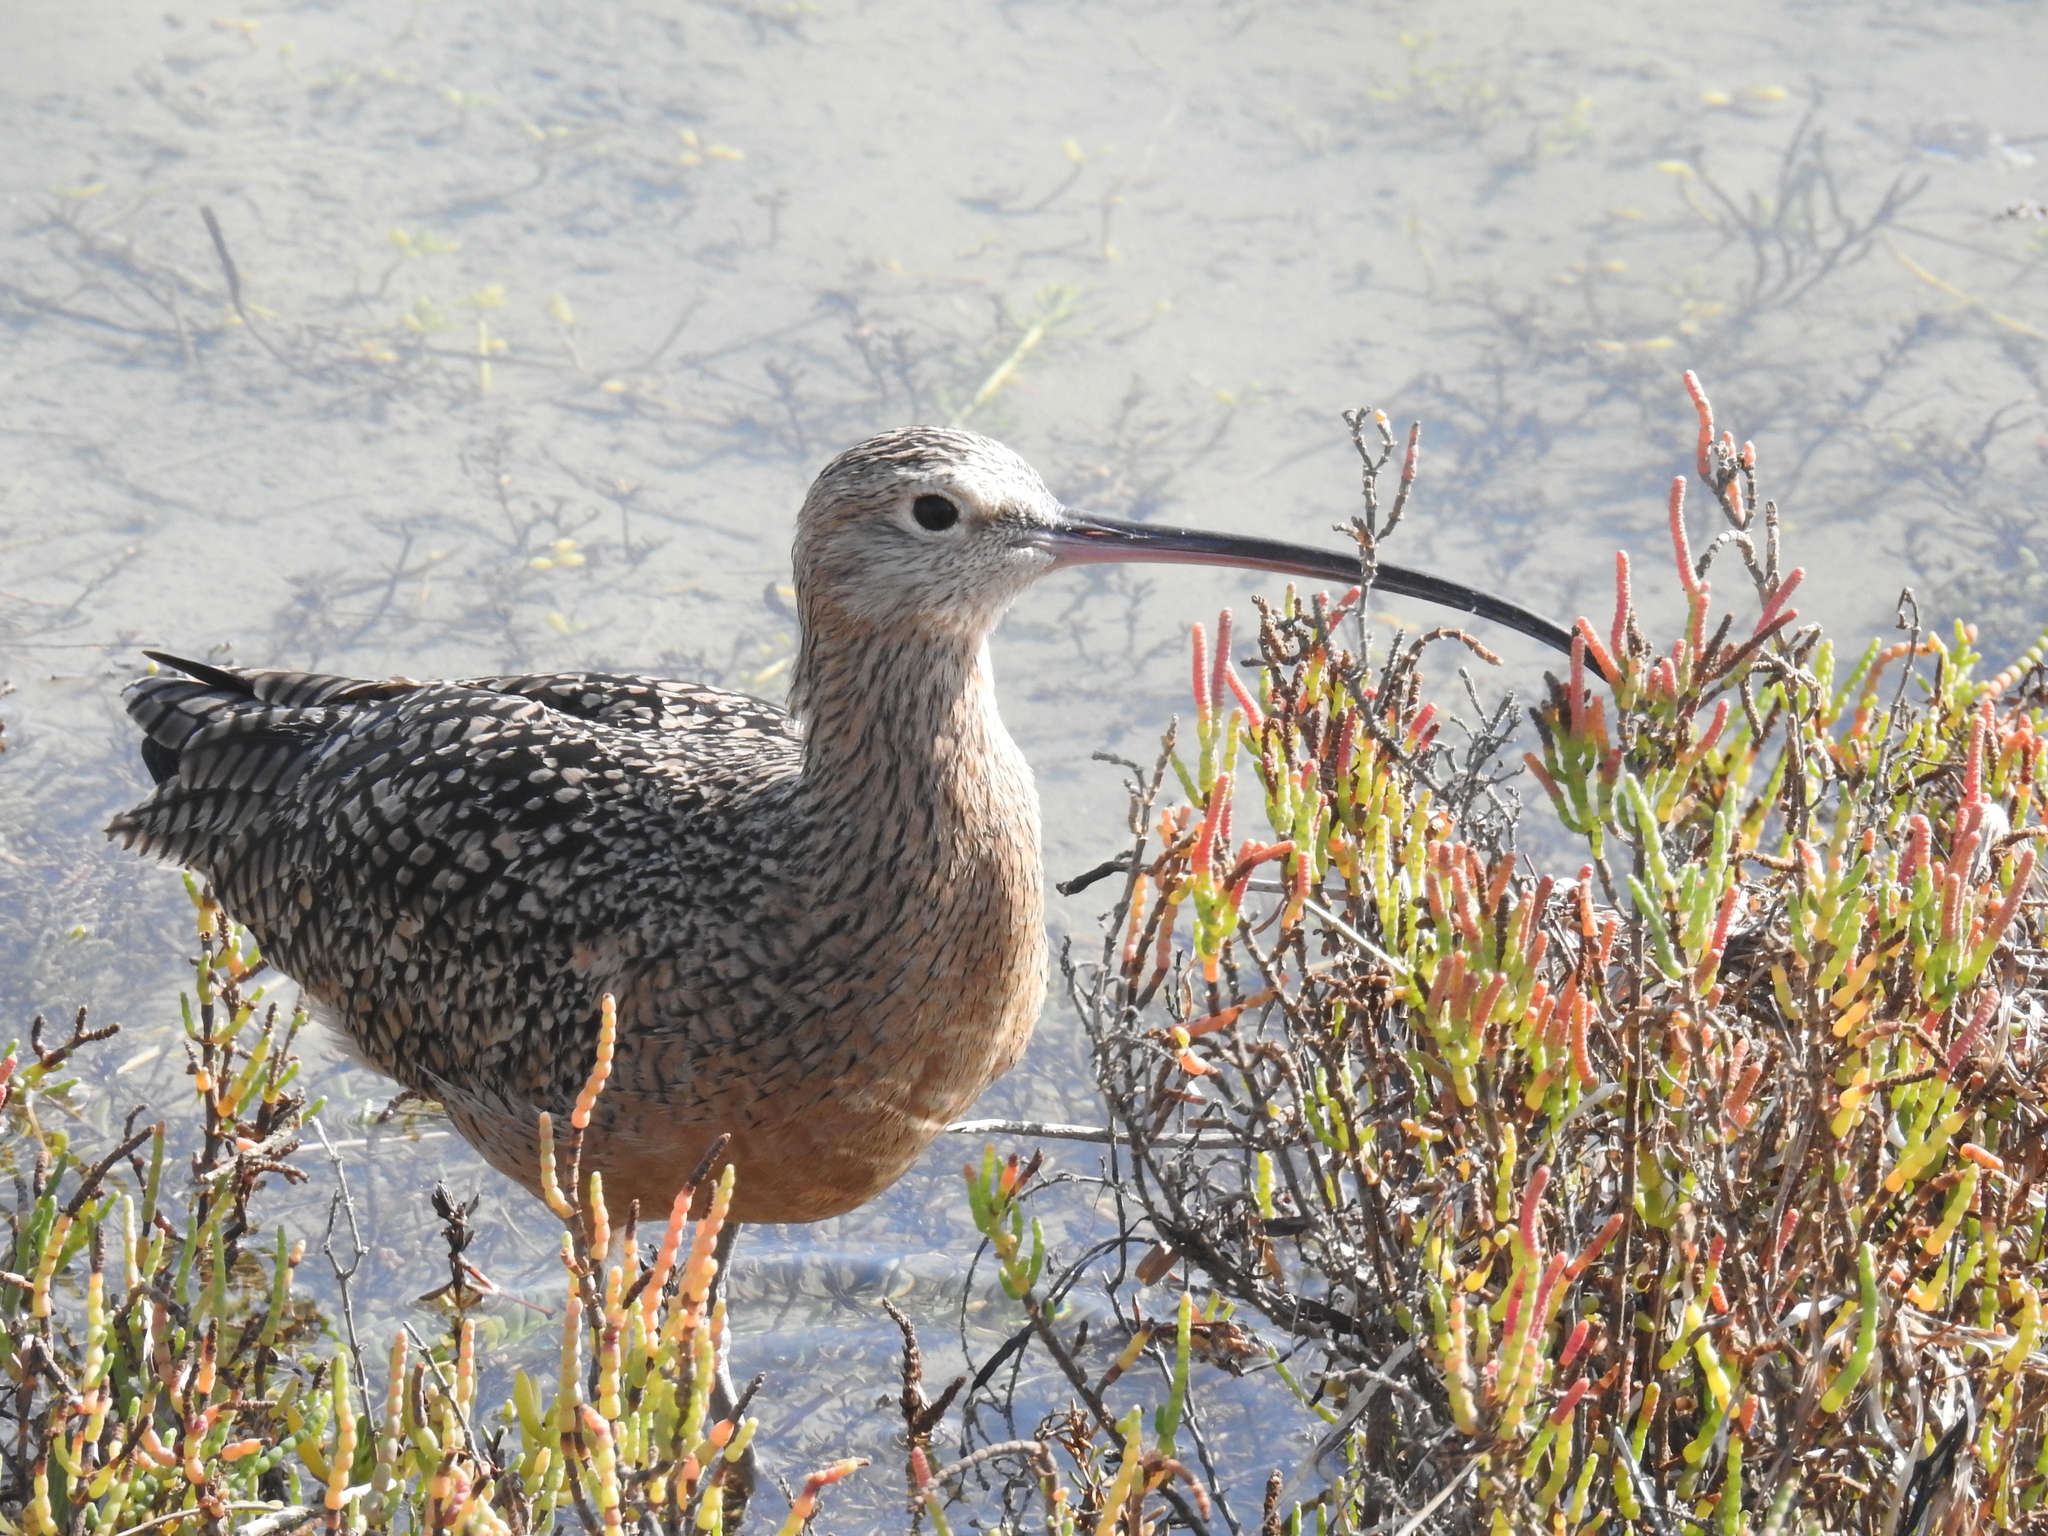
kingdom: Animalia
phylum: Chordata
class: Aves
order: Charadriiformes
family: Scolopacidae
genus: Numenius
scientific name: Numenius americanus
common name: Long-billed curlew
